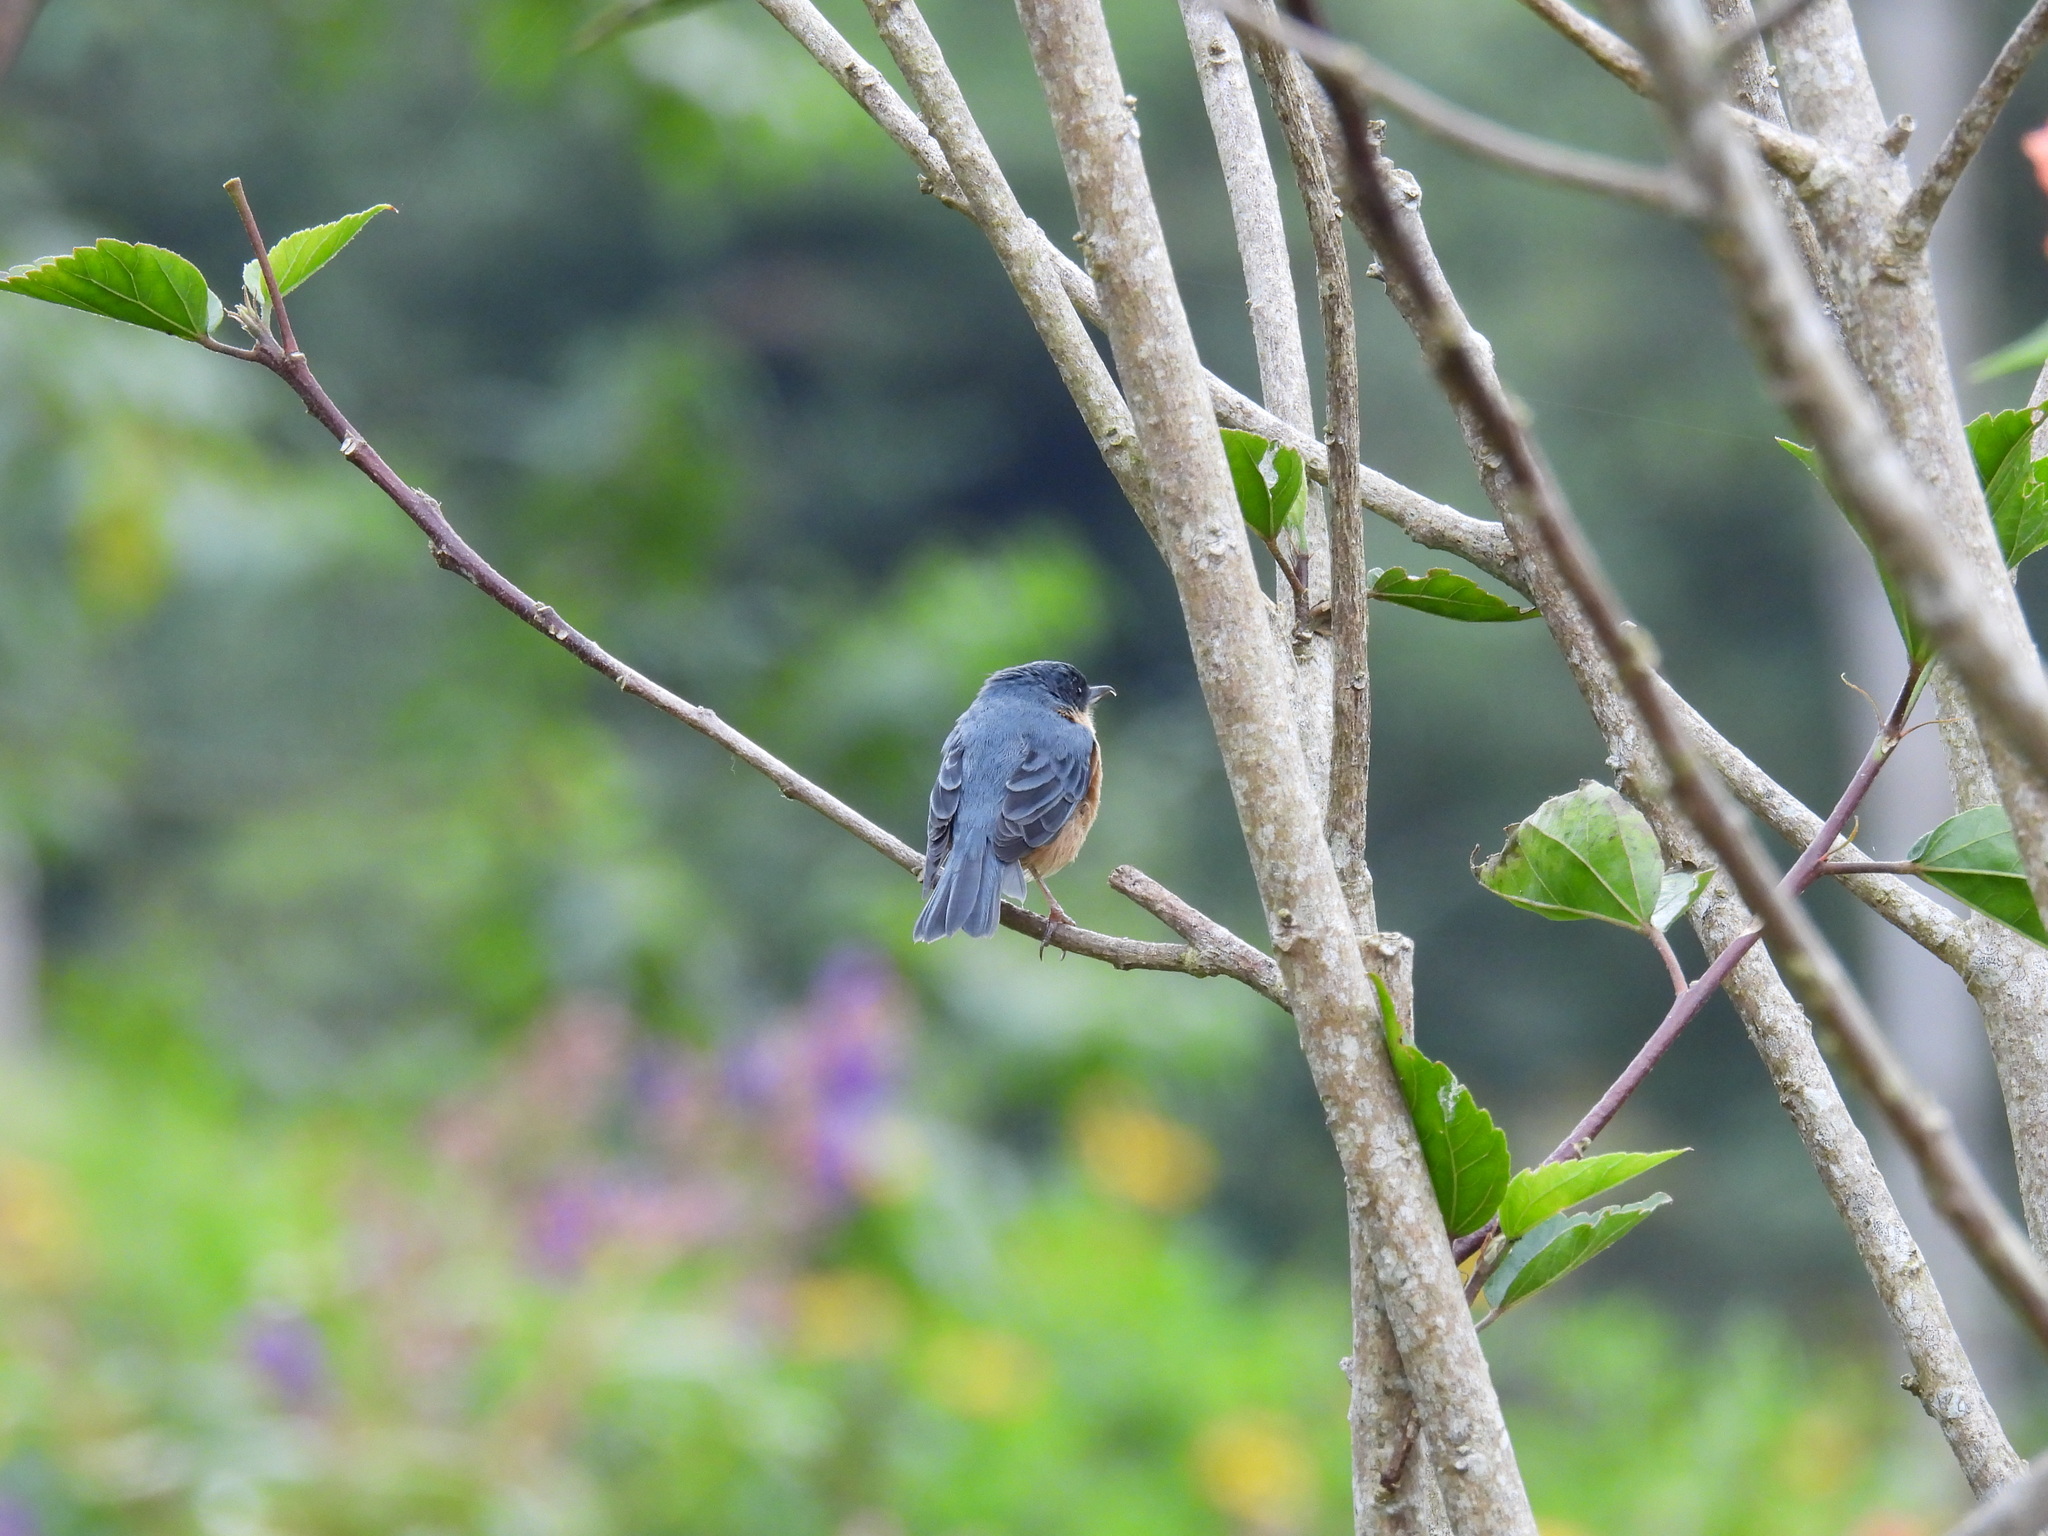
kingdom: Animalia
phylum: Chordata
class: Aves
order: Passeriformes
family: Thraupidae
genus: Diglossa
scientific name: Diglossa sittoides
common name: Rusty flowerpiercer
